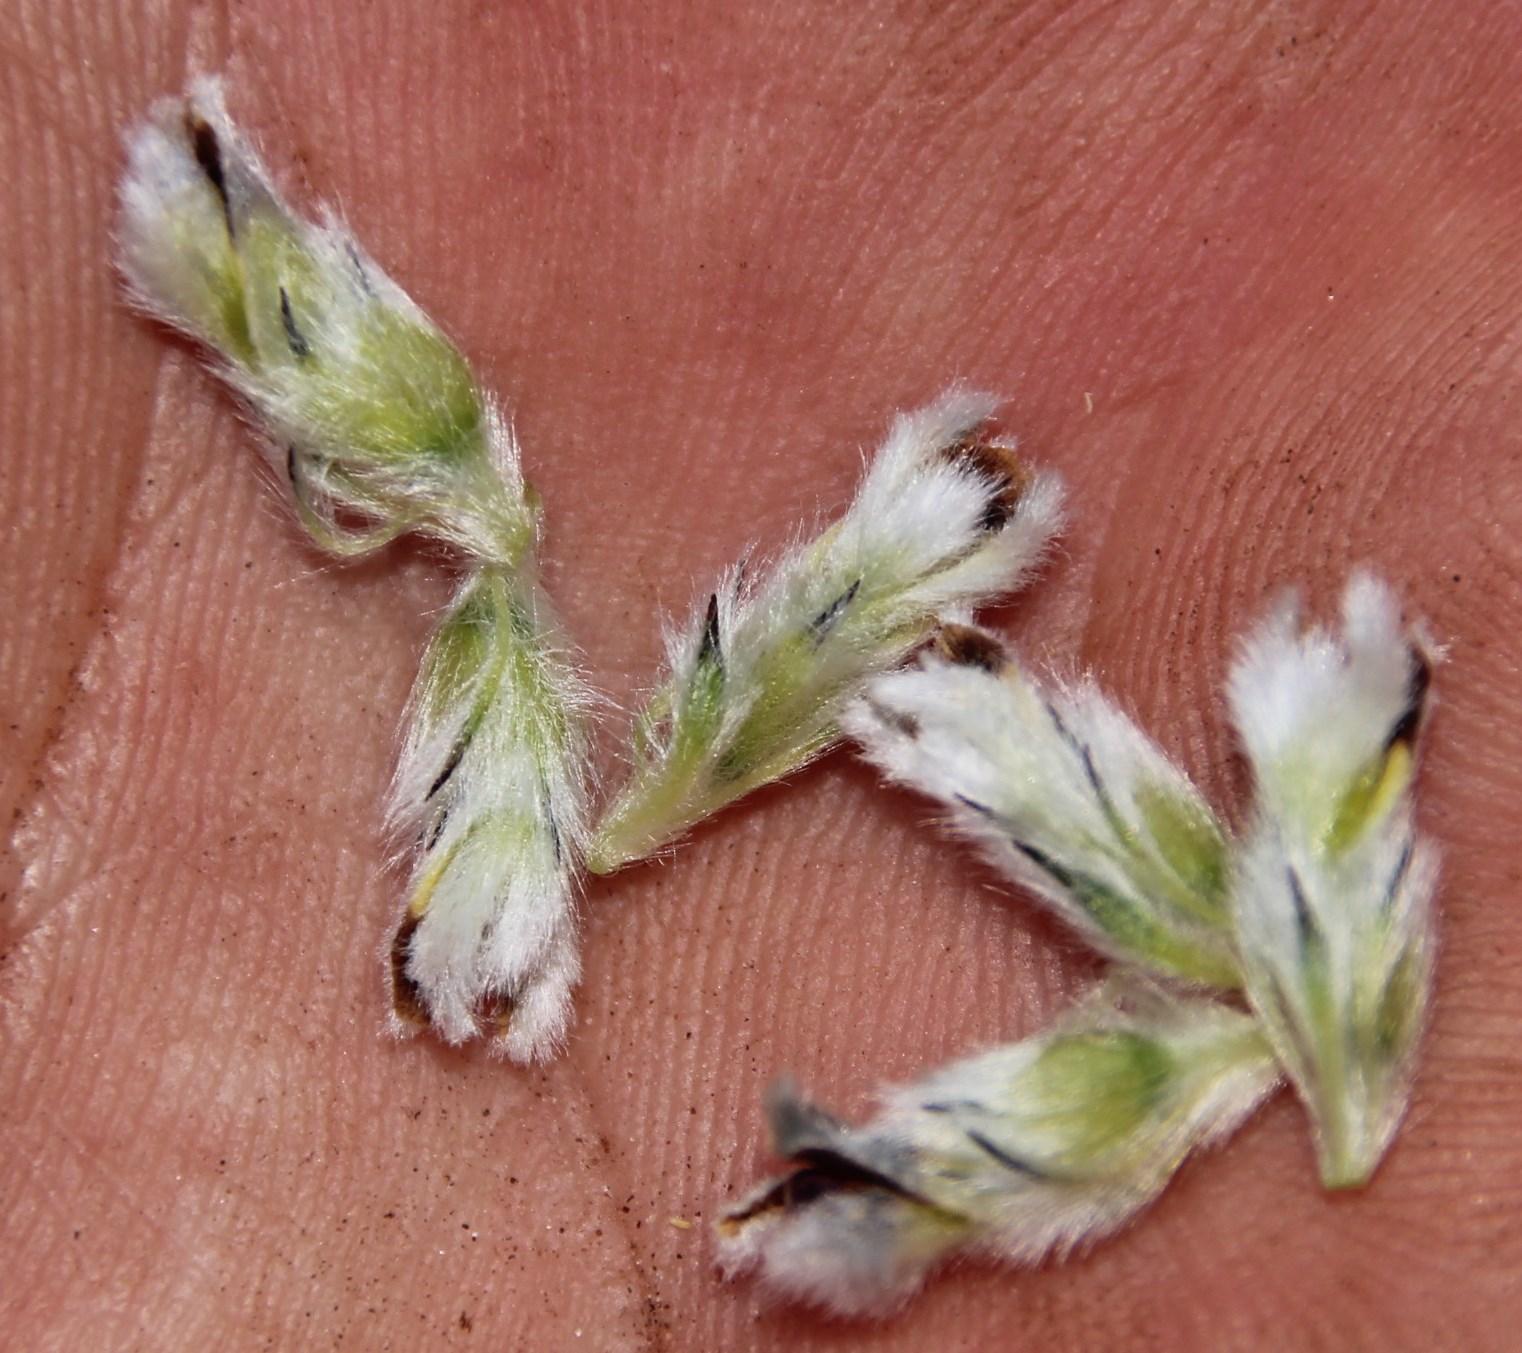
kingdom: Plantae
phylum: Tracheophyta
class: Magnoliopsida
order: Fabales
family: Fabaceae
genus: Aspalathus
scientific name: Aspalathus globosa
